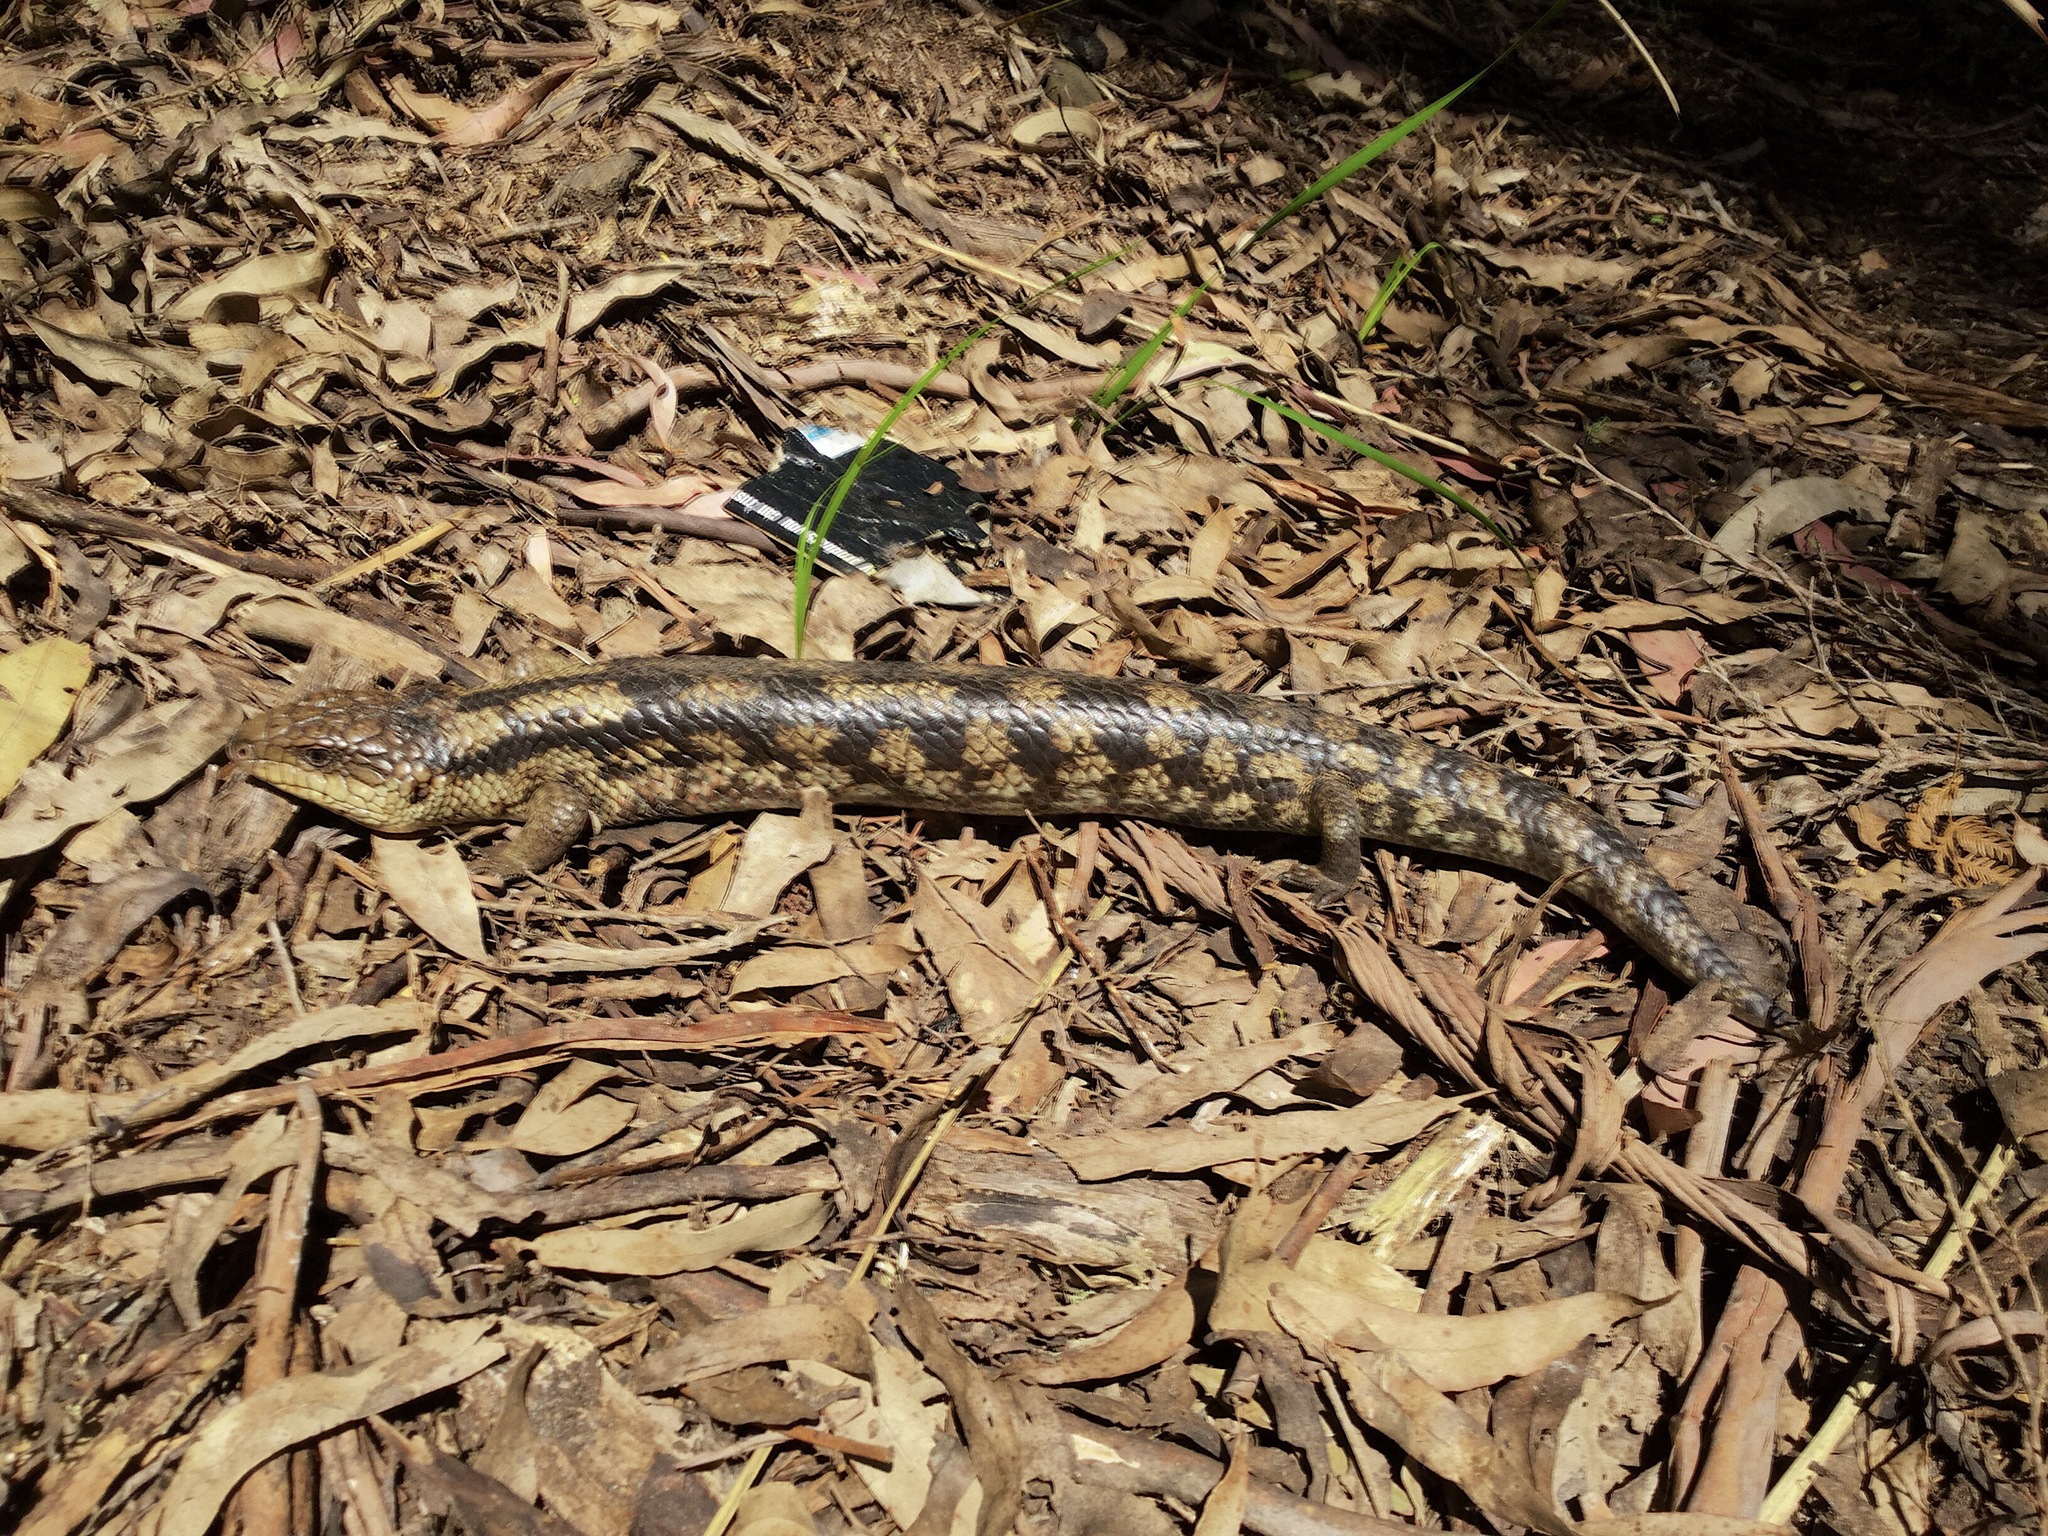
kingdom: Animalia
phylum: Chordata
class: Squamata
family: Scincidae
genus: Tiliqua
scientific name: Tiliqua nigrolutea
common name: Blotched blue-tongued lizard
